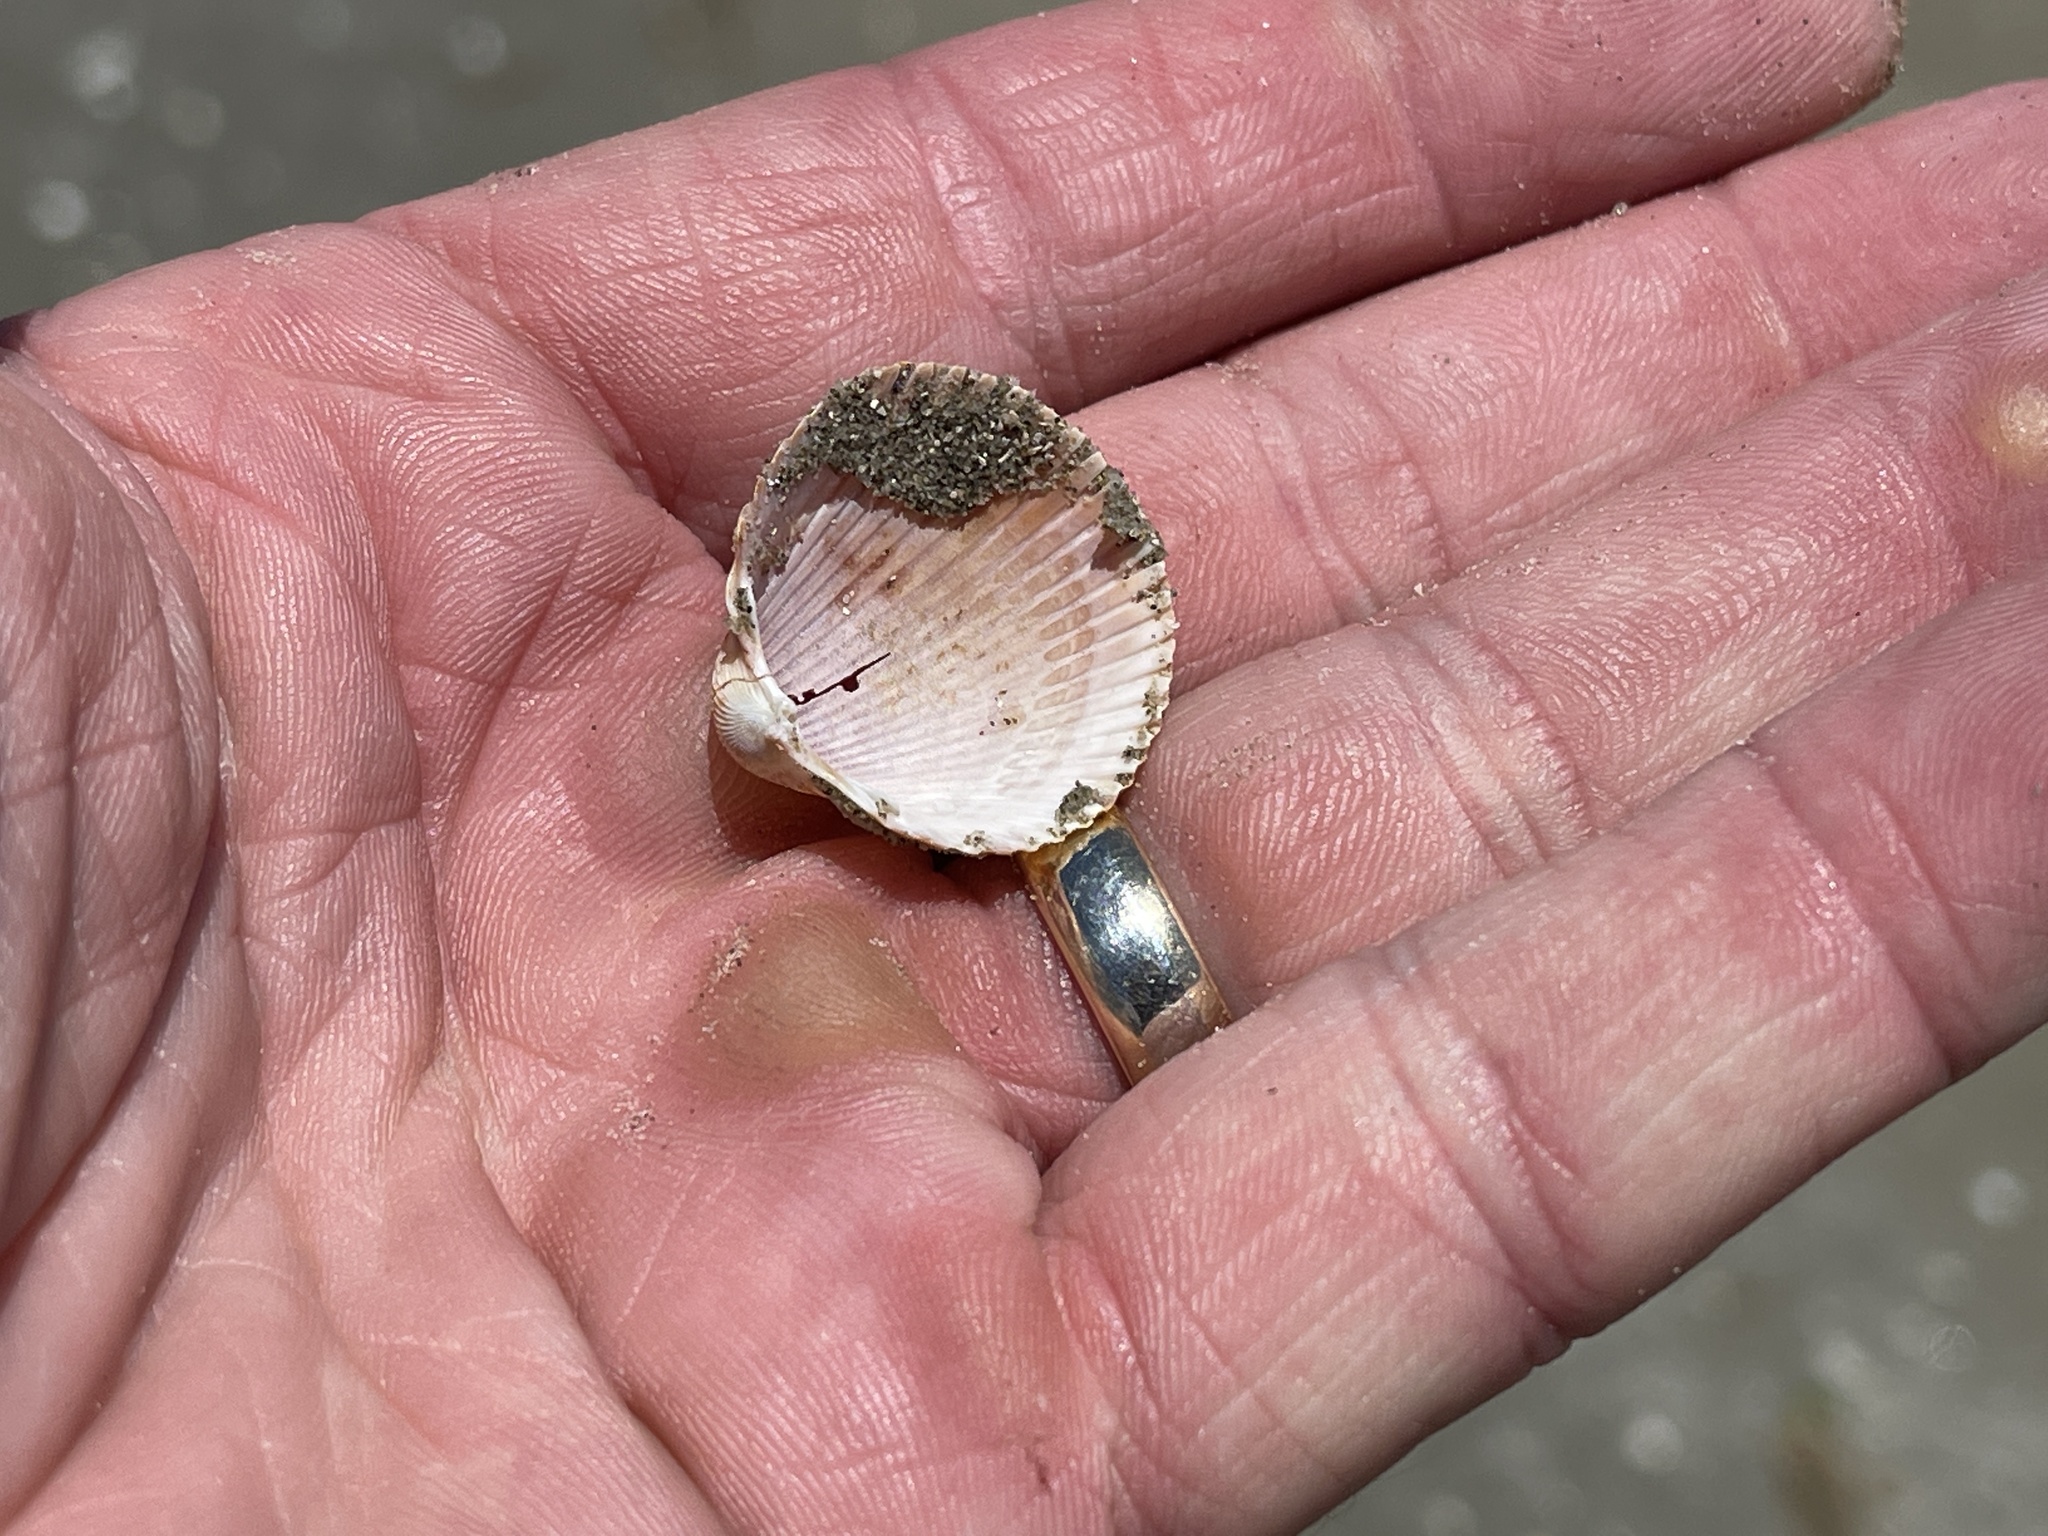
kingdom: Animalia
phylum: Mollusca
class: Bivalvia
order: Cardiida
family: Cardiidae
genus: Dinocardium
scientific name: Dinocardium robustum
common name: Atlantic giant cockle
